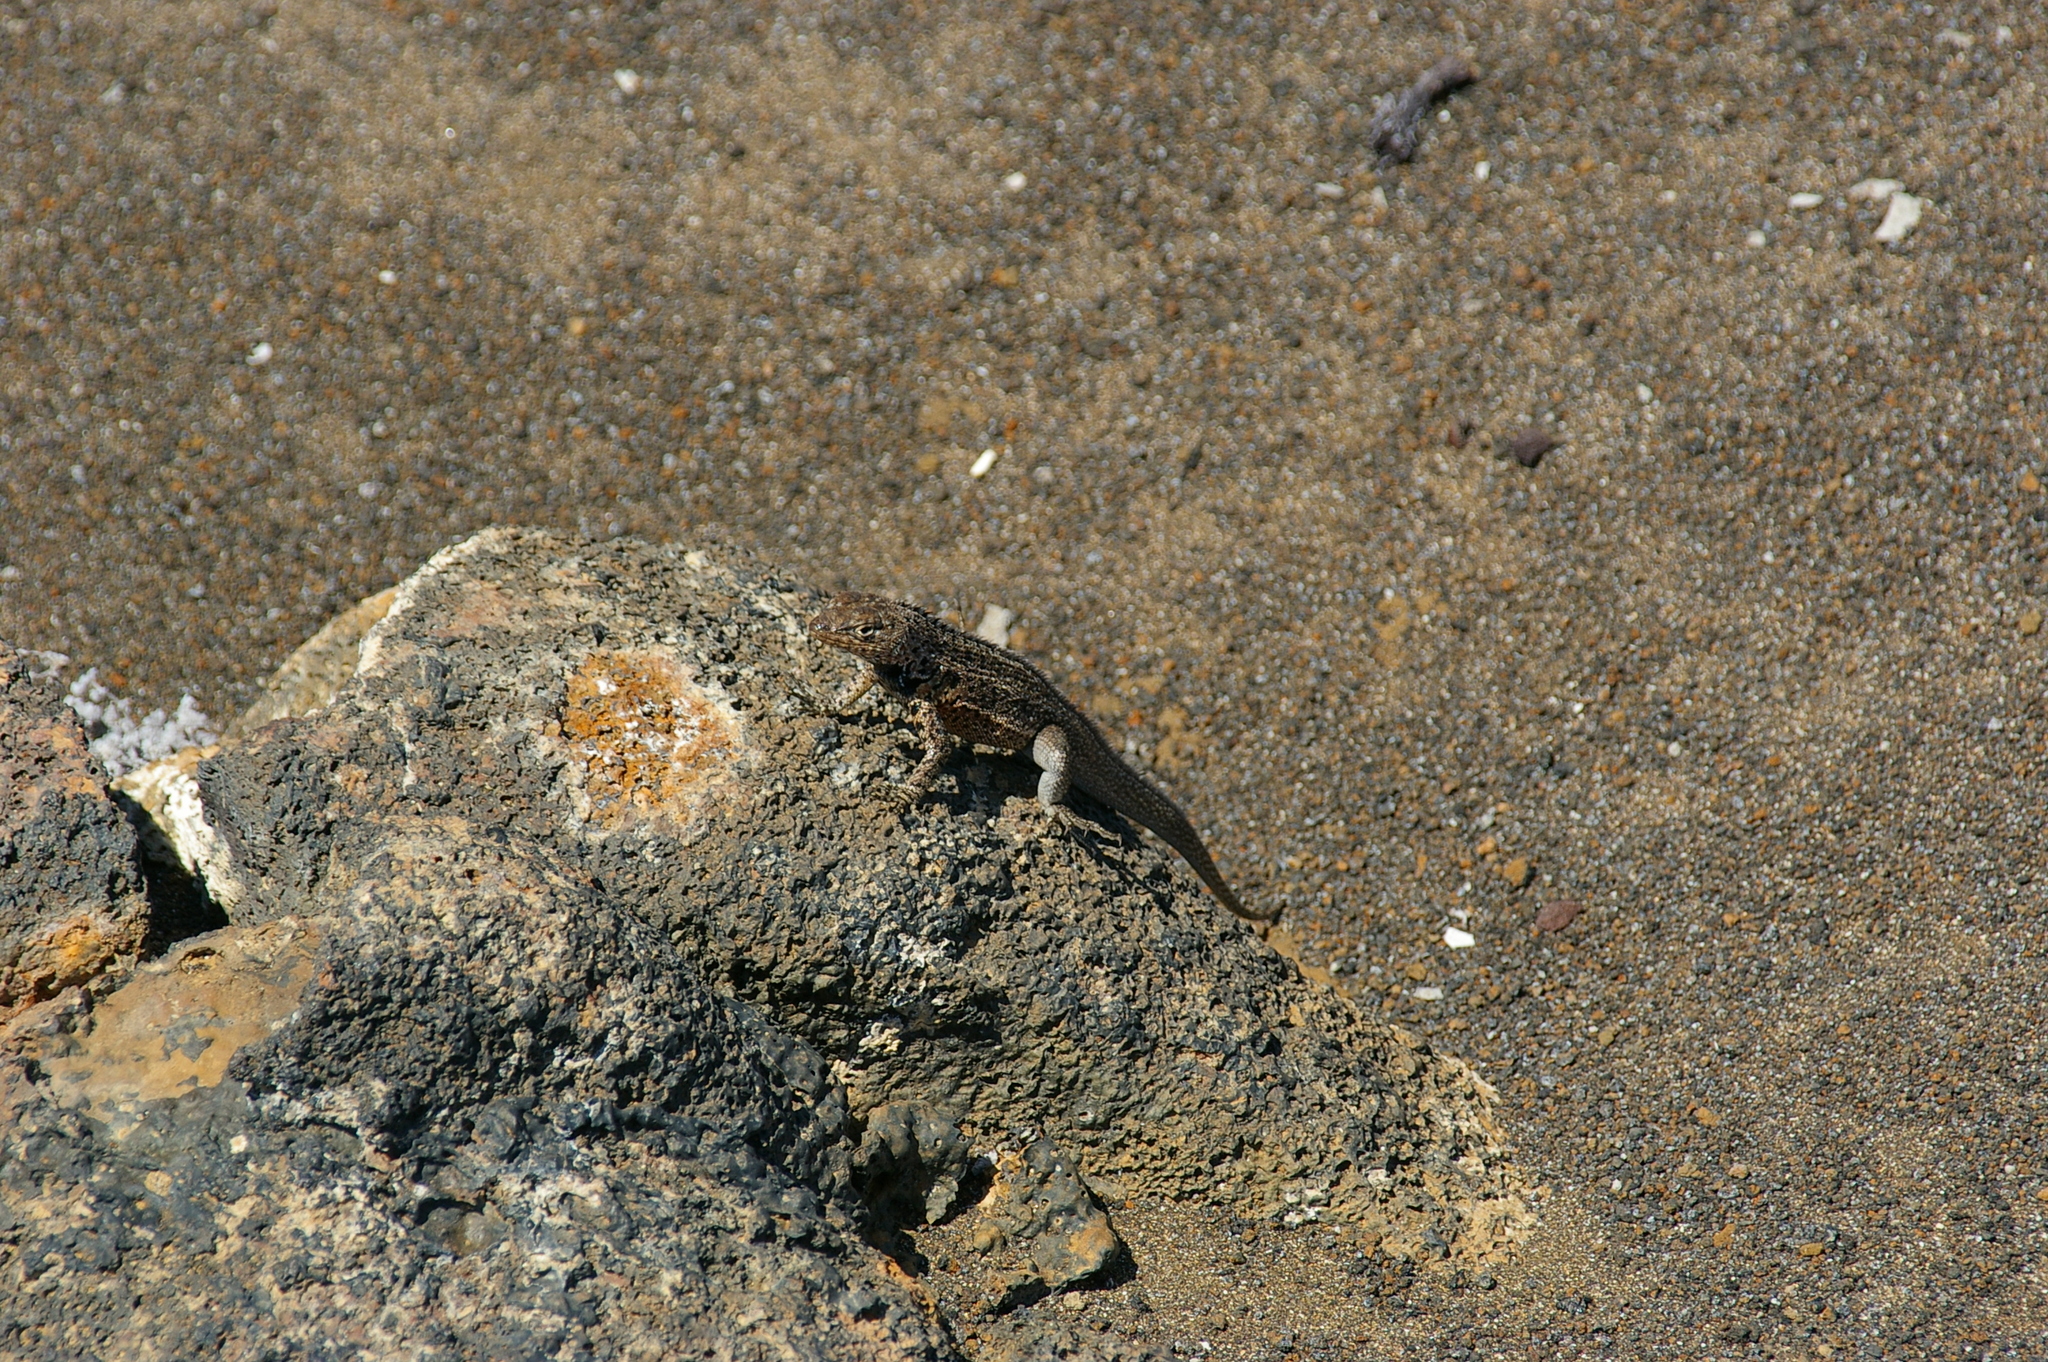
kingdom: Animalia
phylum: Chordata
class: Squamata
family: Tropiduridae
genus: Microlophus
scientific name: Microlophus jacobii
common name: Santiago lava lizard
